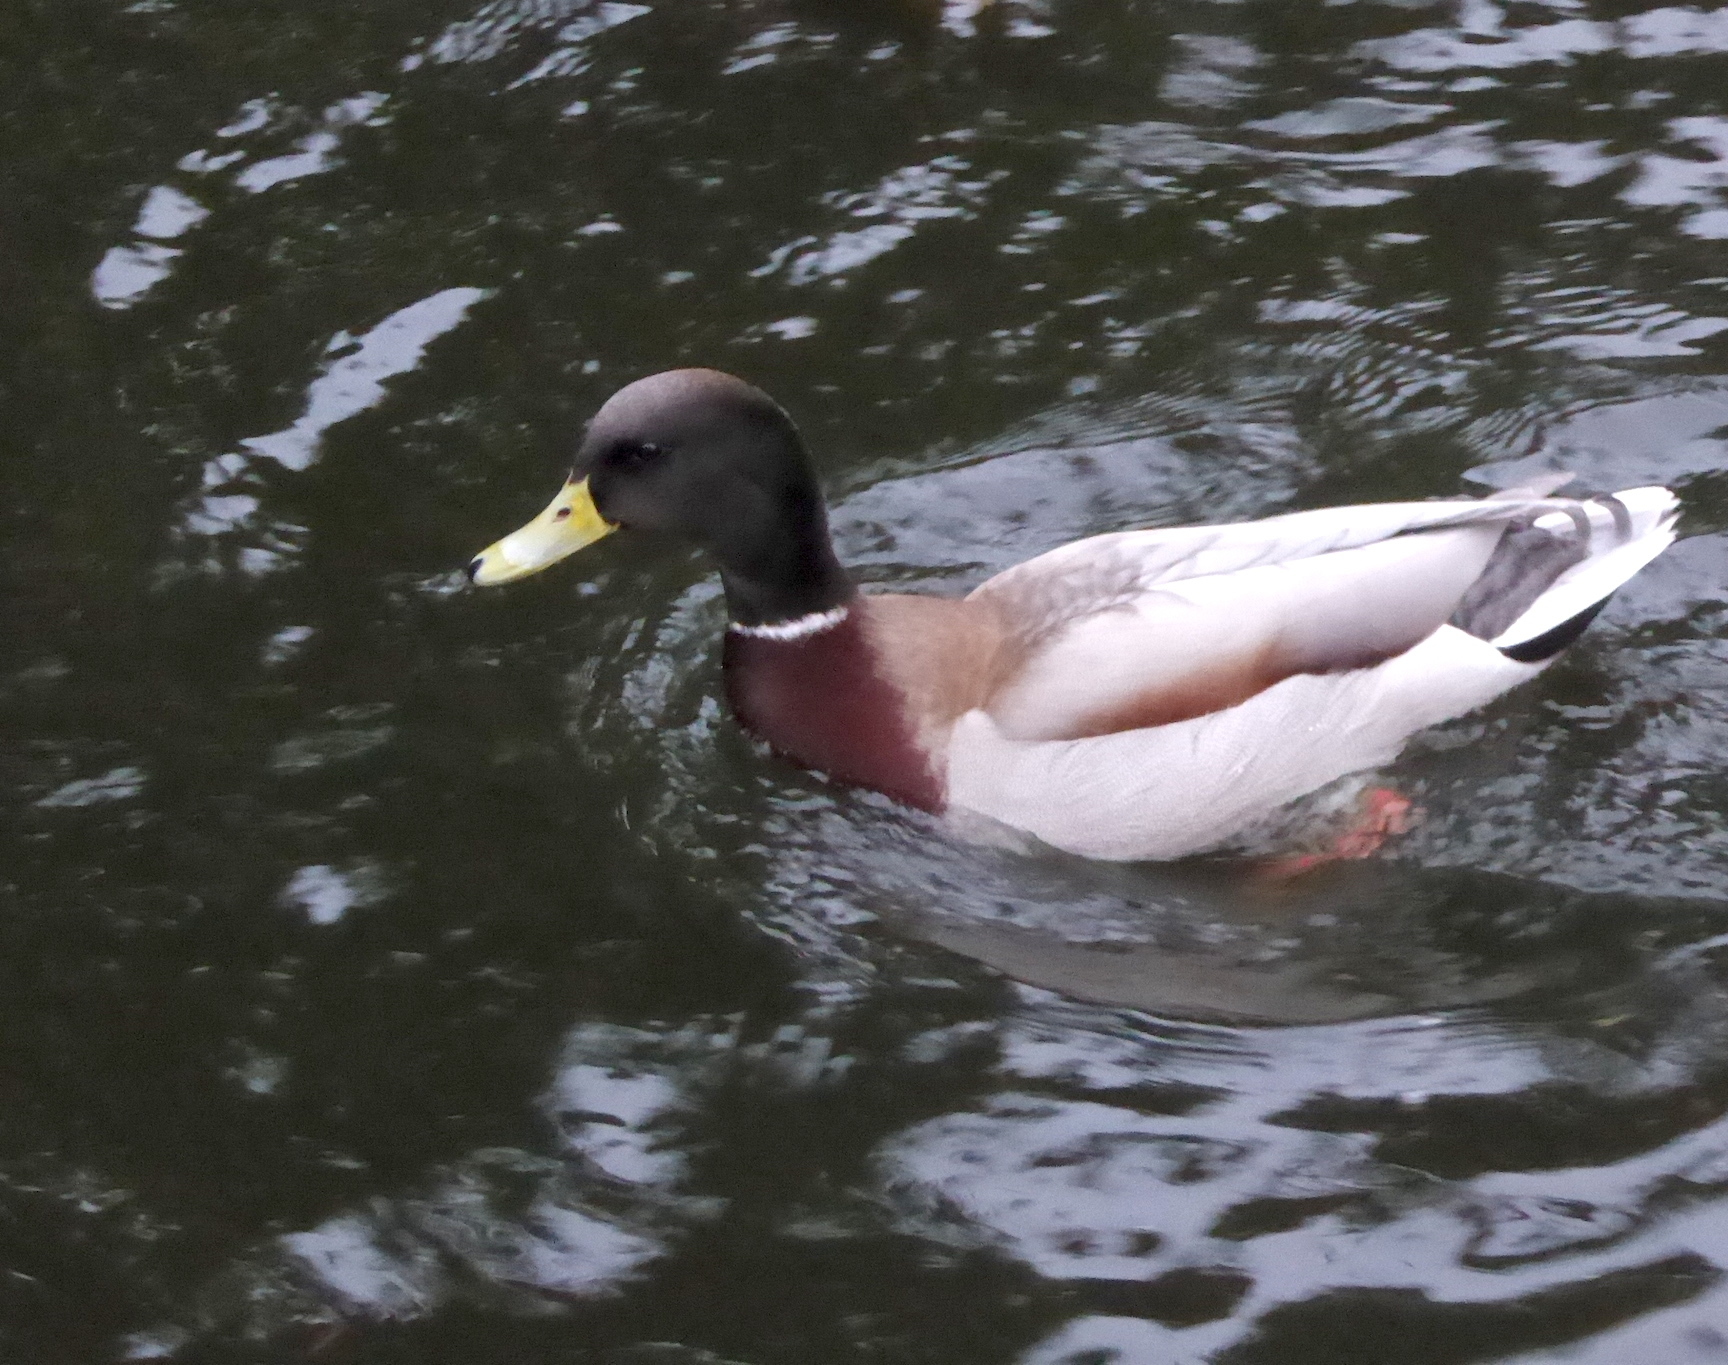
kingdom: Animalia
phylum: Chordata
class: Aves
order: Anseriformes
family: Anatidae
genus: Anas
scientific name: Anas platyrhynchos
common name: Mallard
